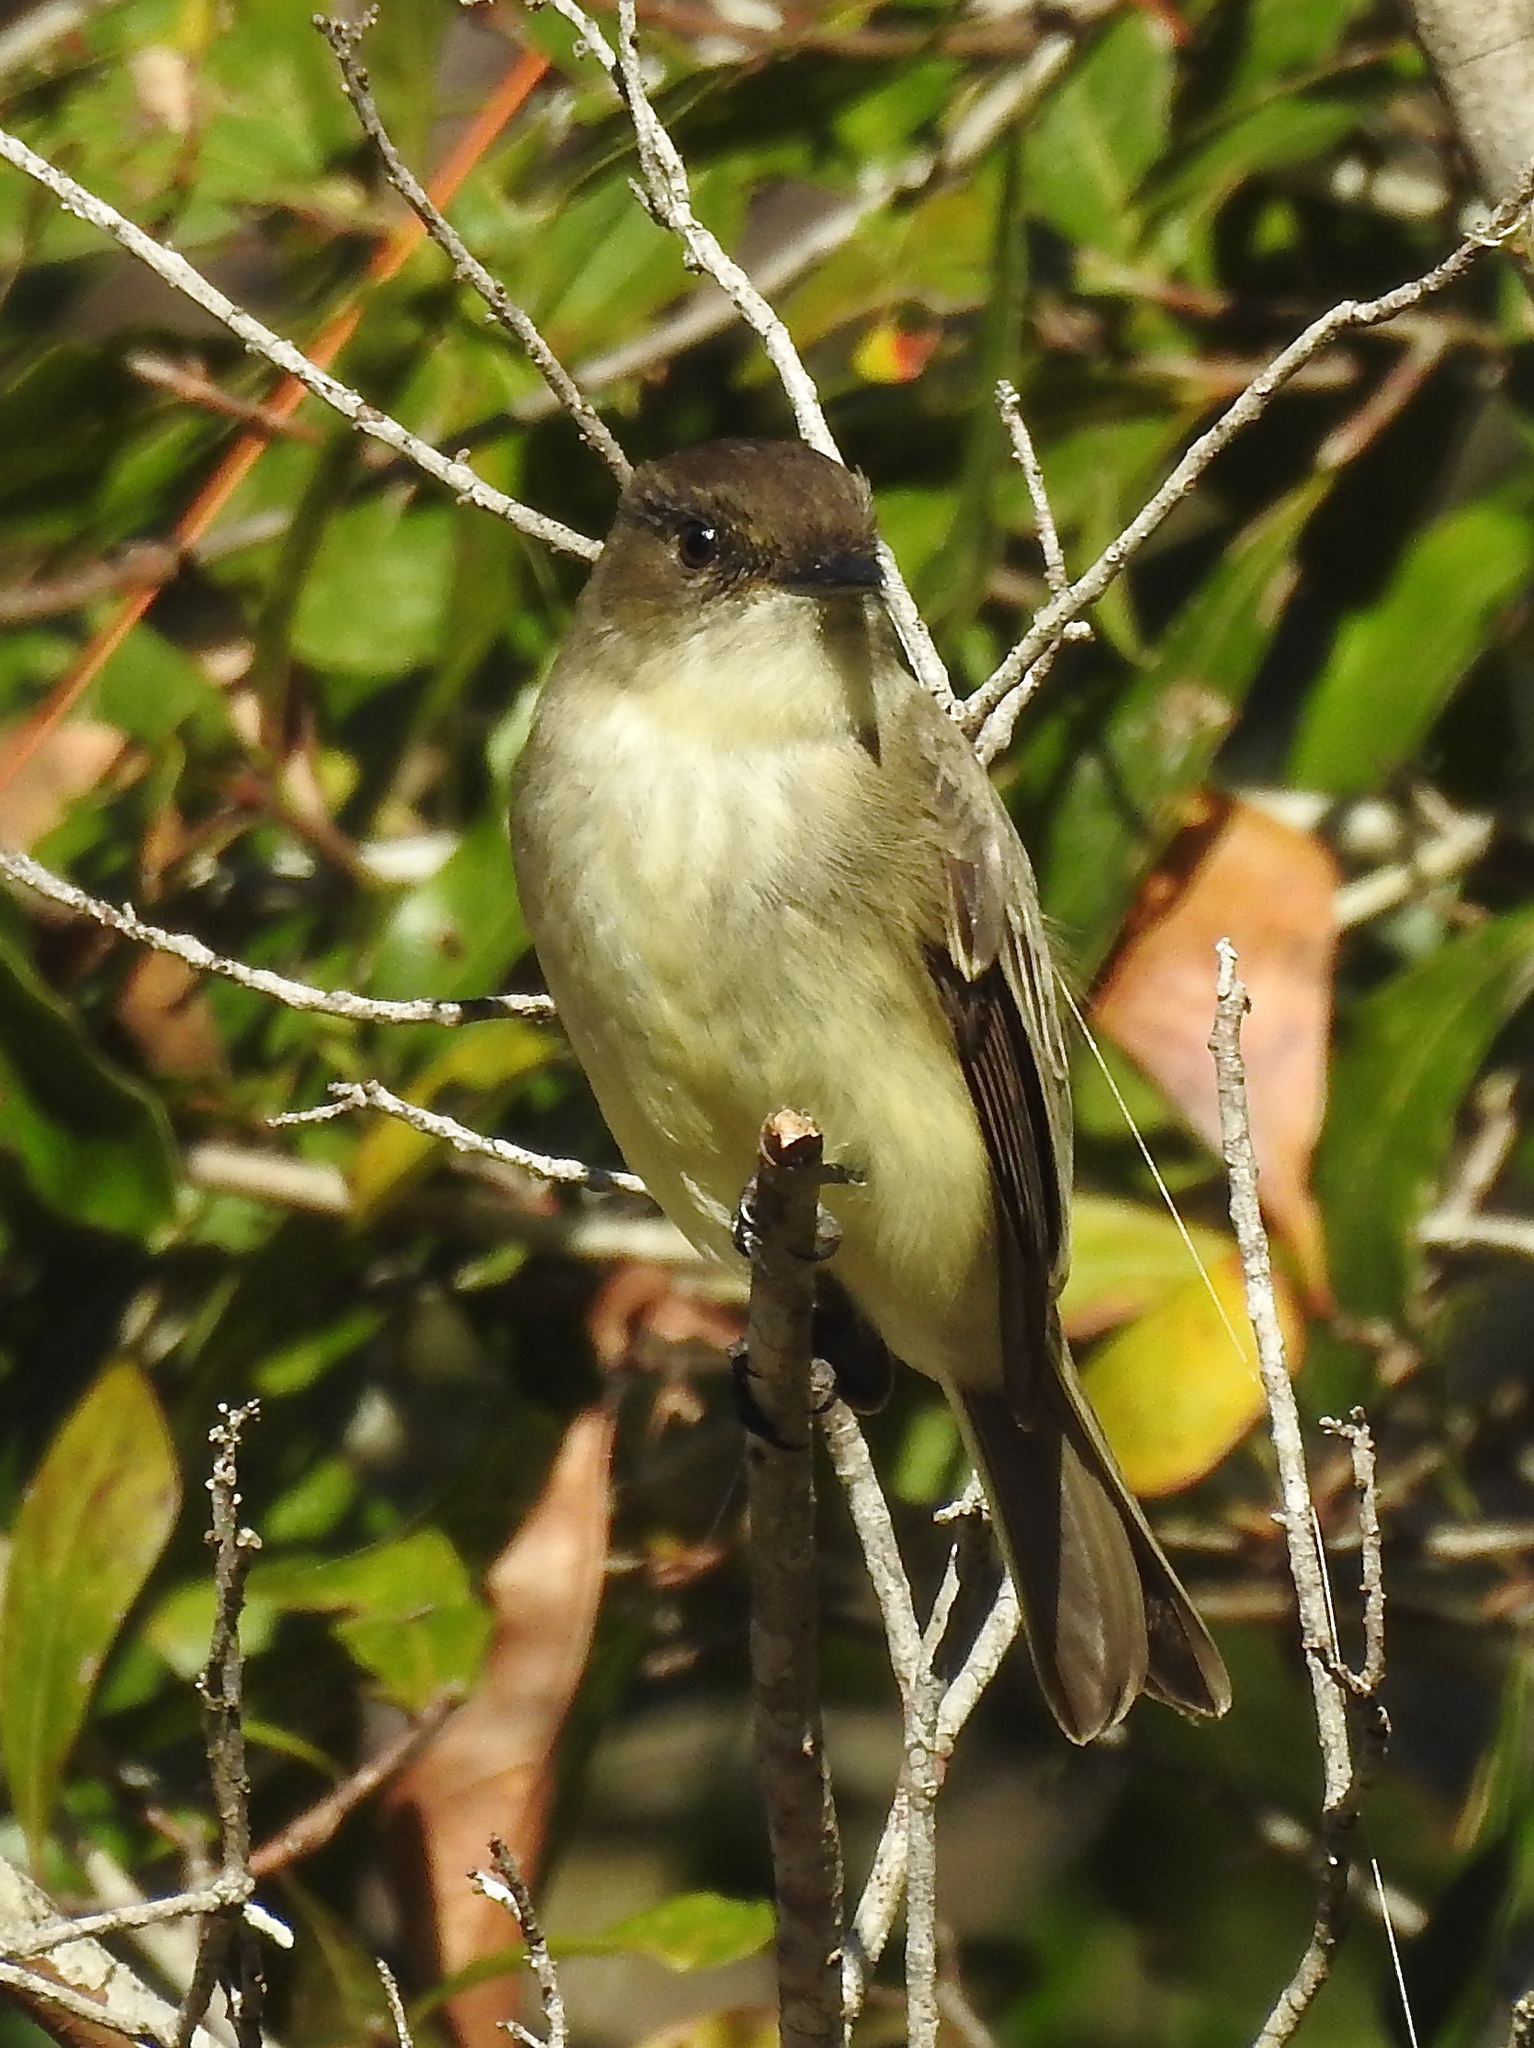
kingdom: Animalia
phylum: Chordata
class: Aves
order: Passeriformes
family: Tyrannidae
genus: Sayornis
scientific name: Sayornis phoebe
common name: Eastern phoebe
